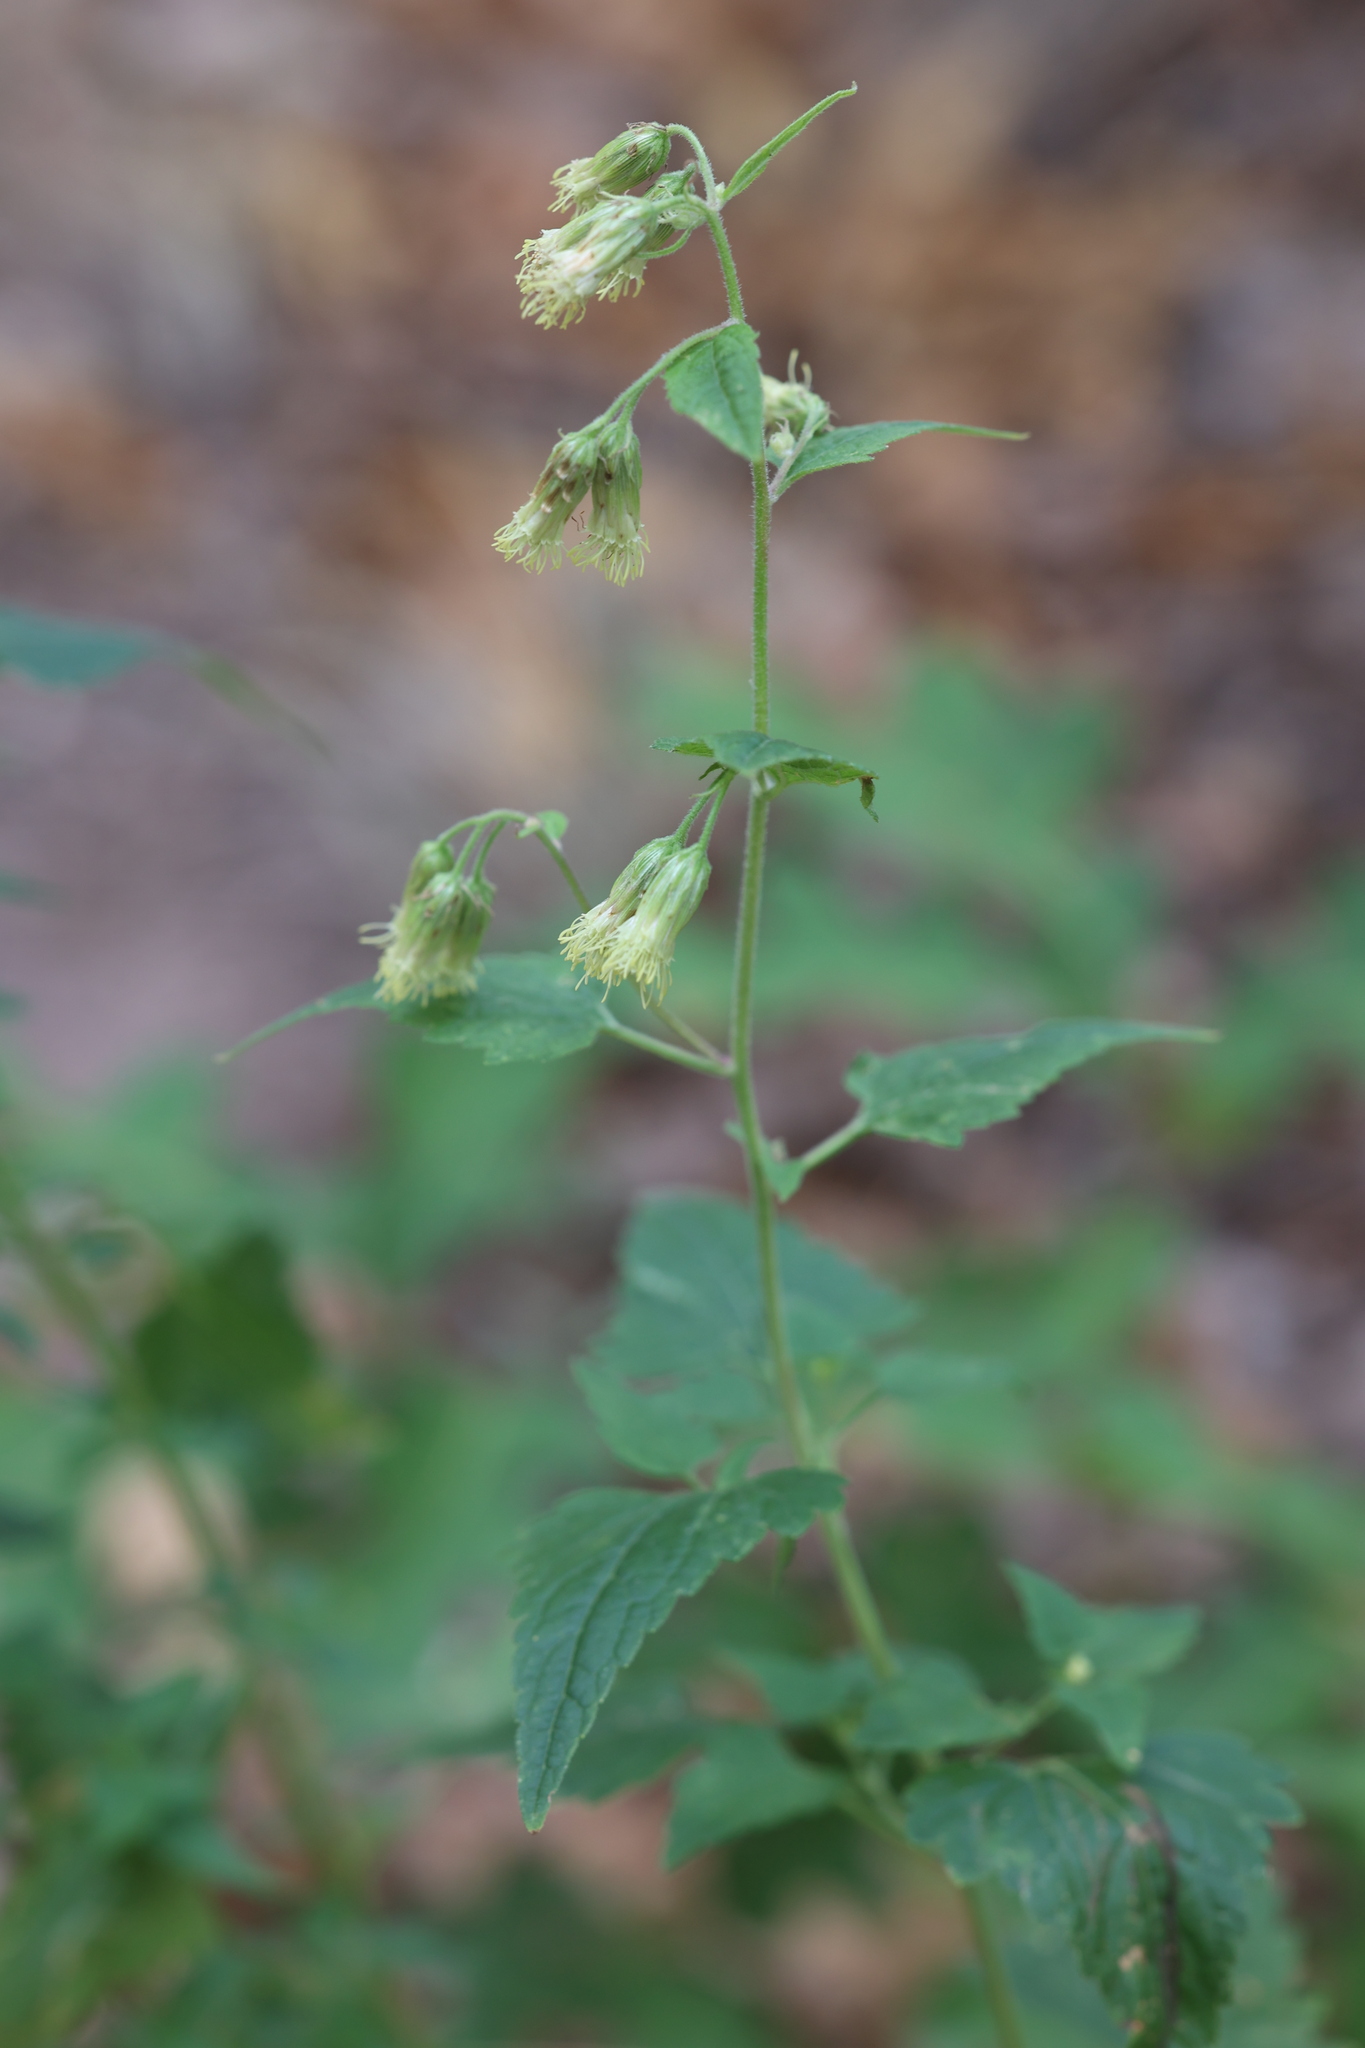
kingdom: Plantae
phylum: Tracheophyta
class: Magnoliopsida
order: Asterales
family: Asteraceae
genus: Brickellia
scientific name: Brickellia grandiflora
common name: Large-flowered brickellia
